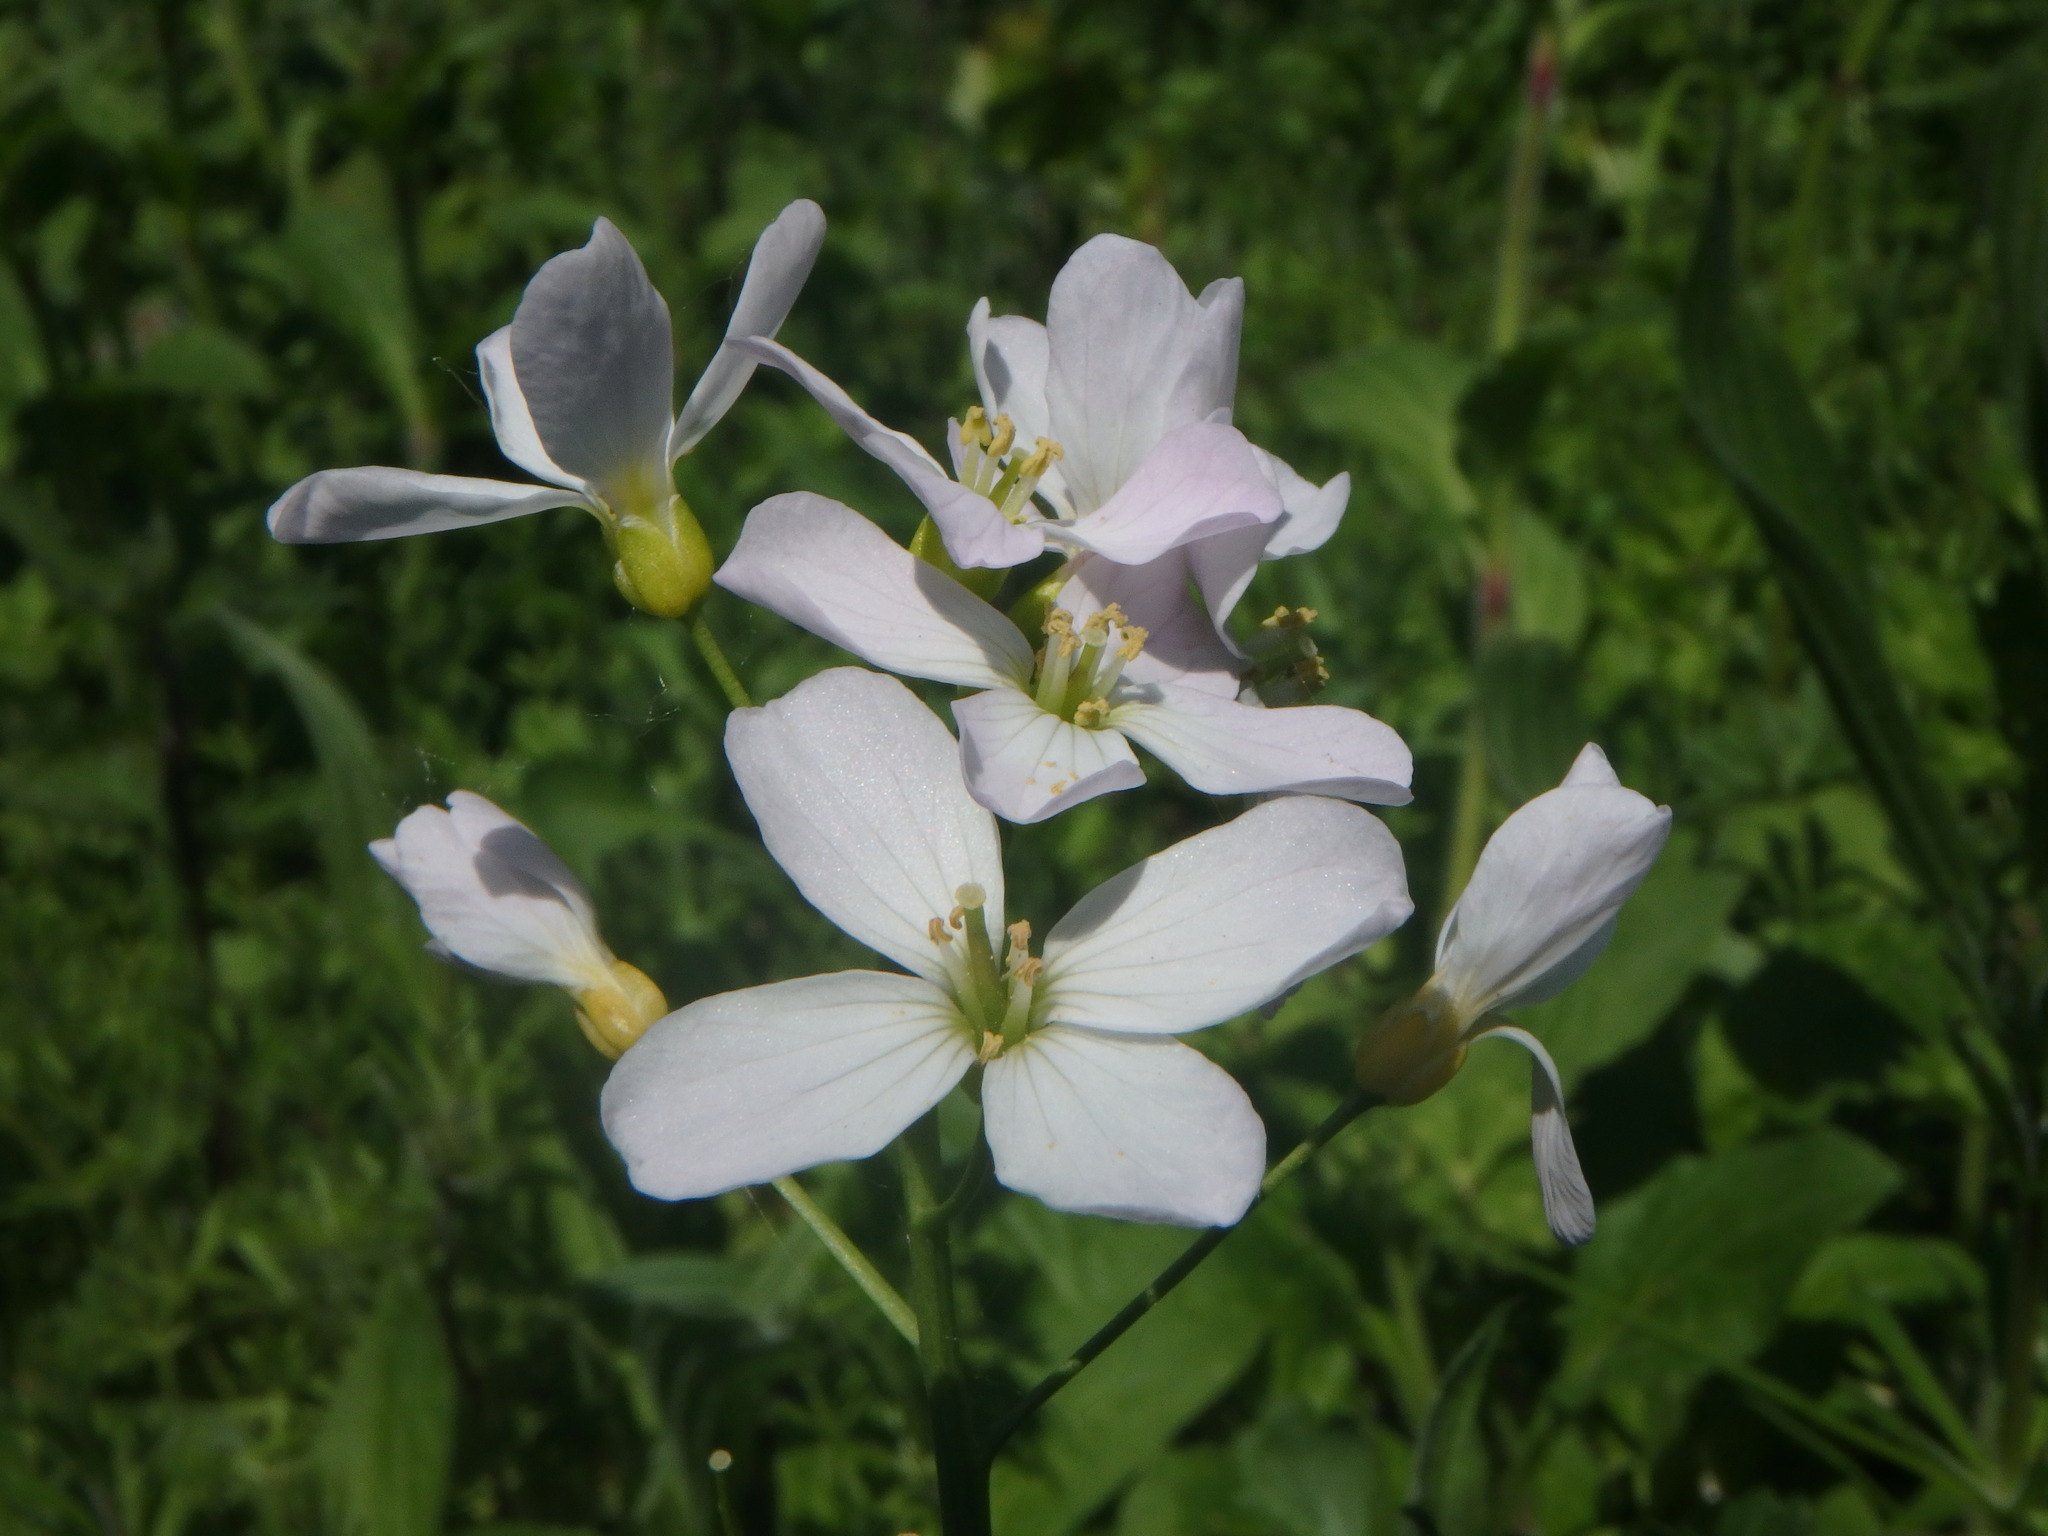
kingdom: Plantae
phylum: Tracheophyta
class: Magnoliopsida
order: Brassicales
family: Brassicaceae
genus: Cardamine
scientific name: Cardamine pratensis
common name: Cuckoo flower
